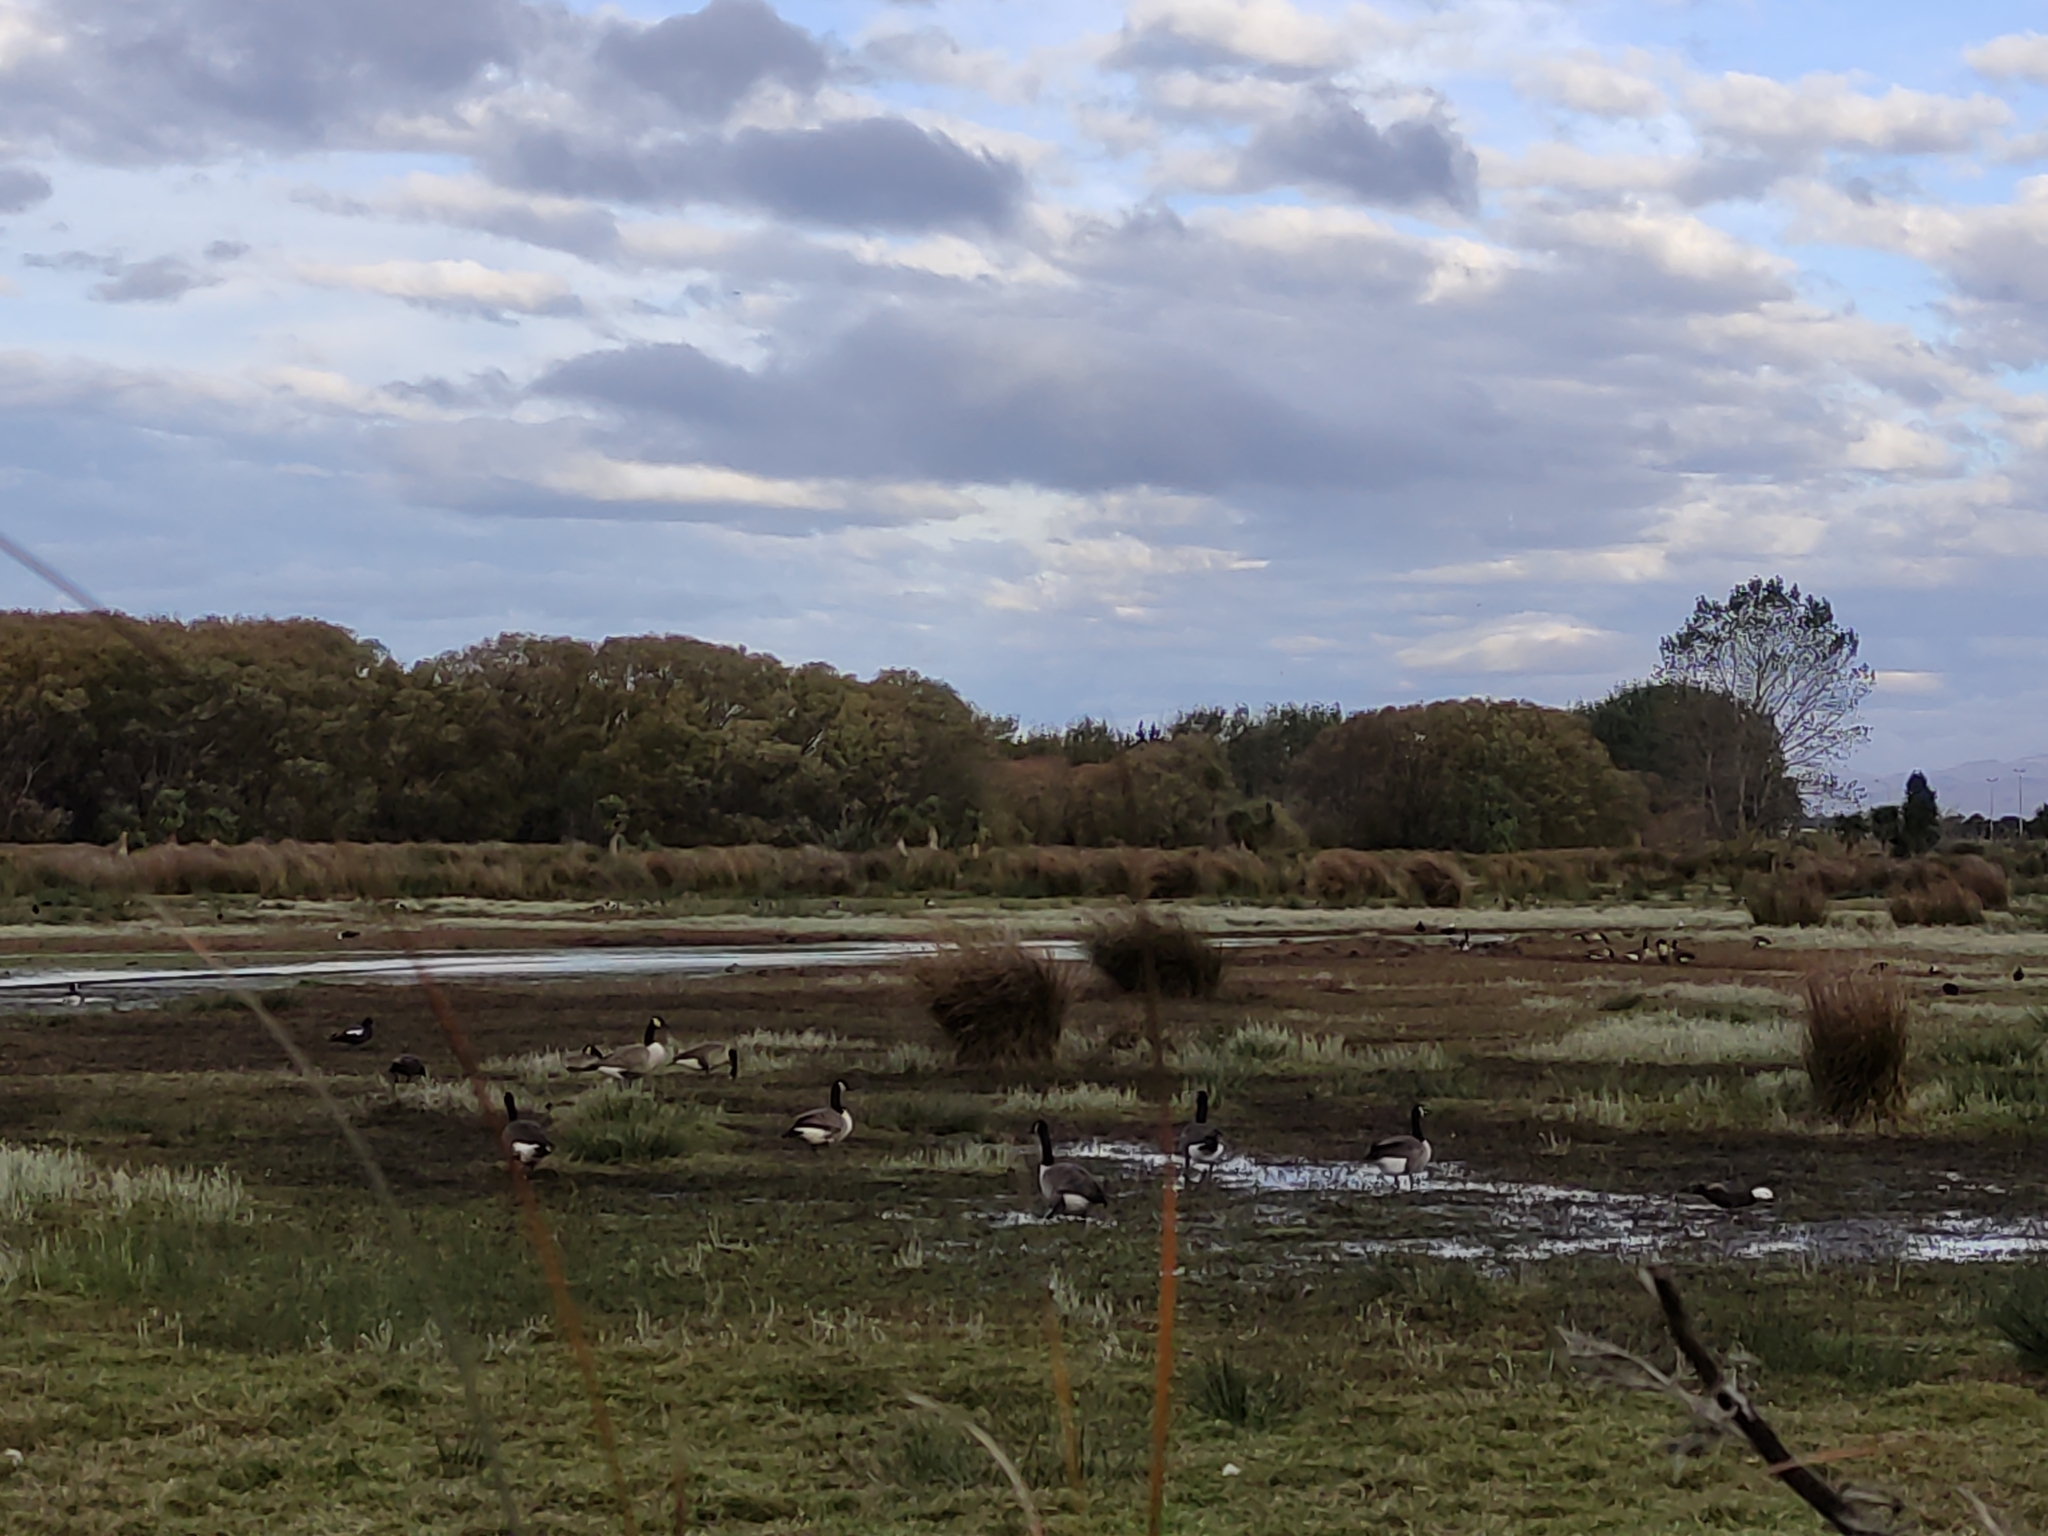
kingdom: Animalia
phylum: Chordata
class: Aves
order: Anseriformes
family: Anatidae
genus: Branta
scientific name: Branta canadensis
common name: Canada goose
